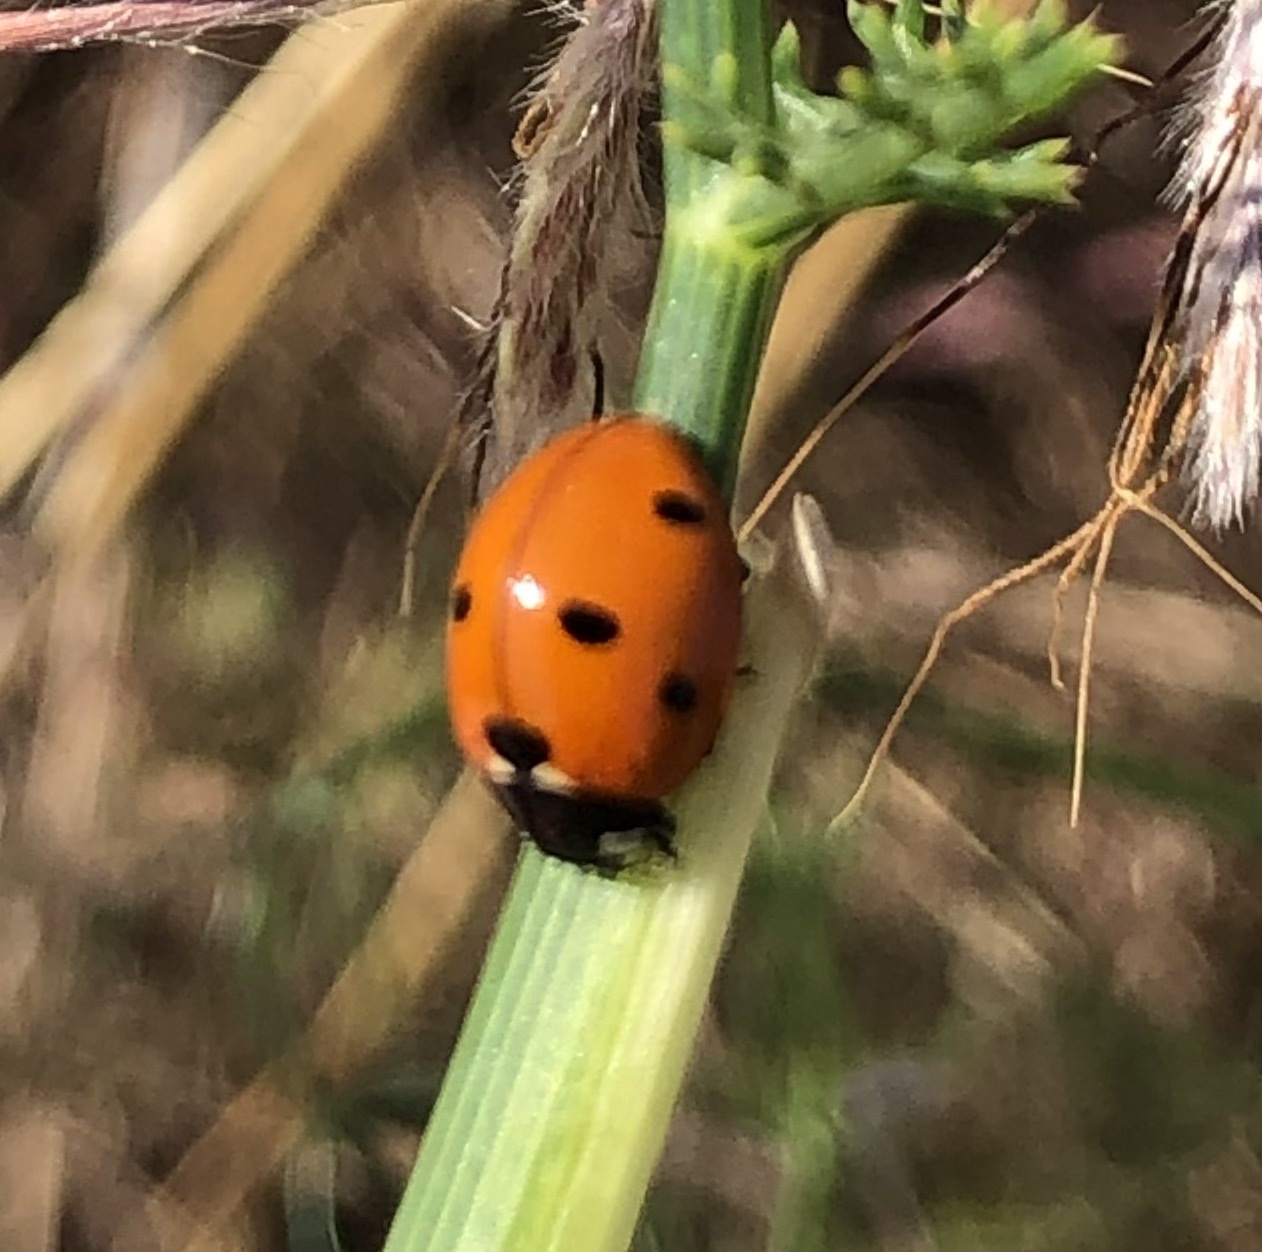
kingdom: Animalia
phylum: Arthropoda
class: Insecta
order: Coleoptera
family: Coccinellidae
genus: Coccinella
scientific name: Coccinella septempunctata
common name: Sevenspotted lady beetle
